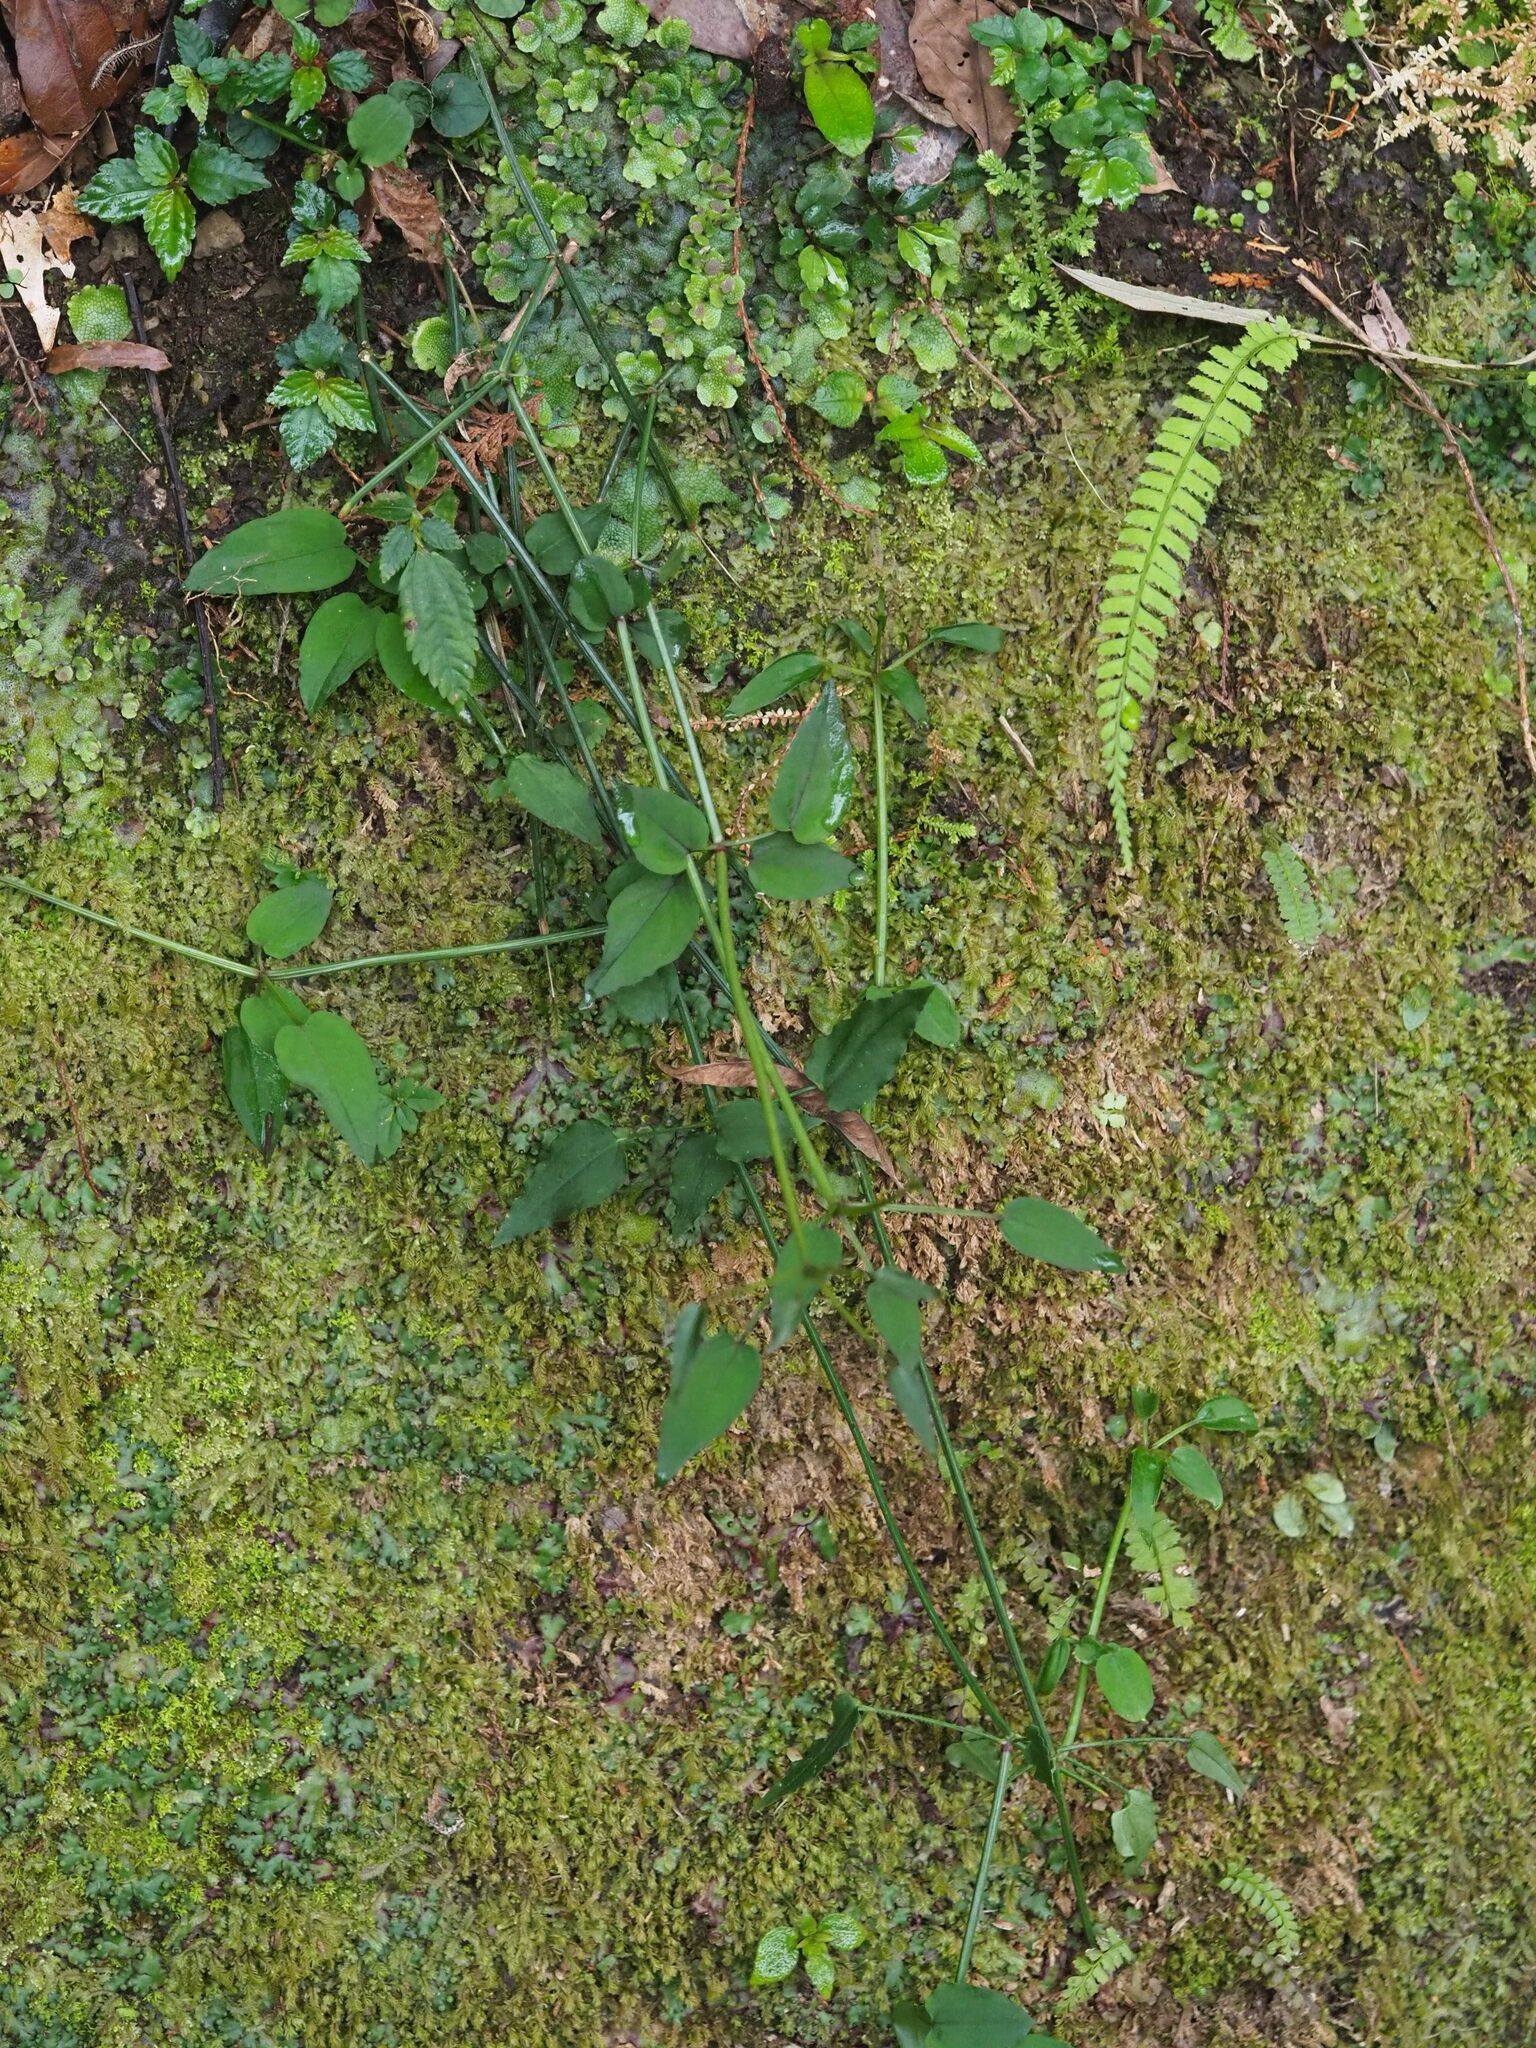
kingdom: Plantae
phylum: Tracheophyta
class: Magnoliopsida
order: Gentianales
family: Rubiaceae
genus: Rubia
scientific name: Rubia linii
